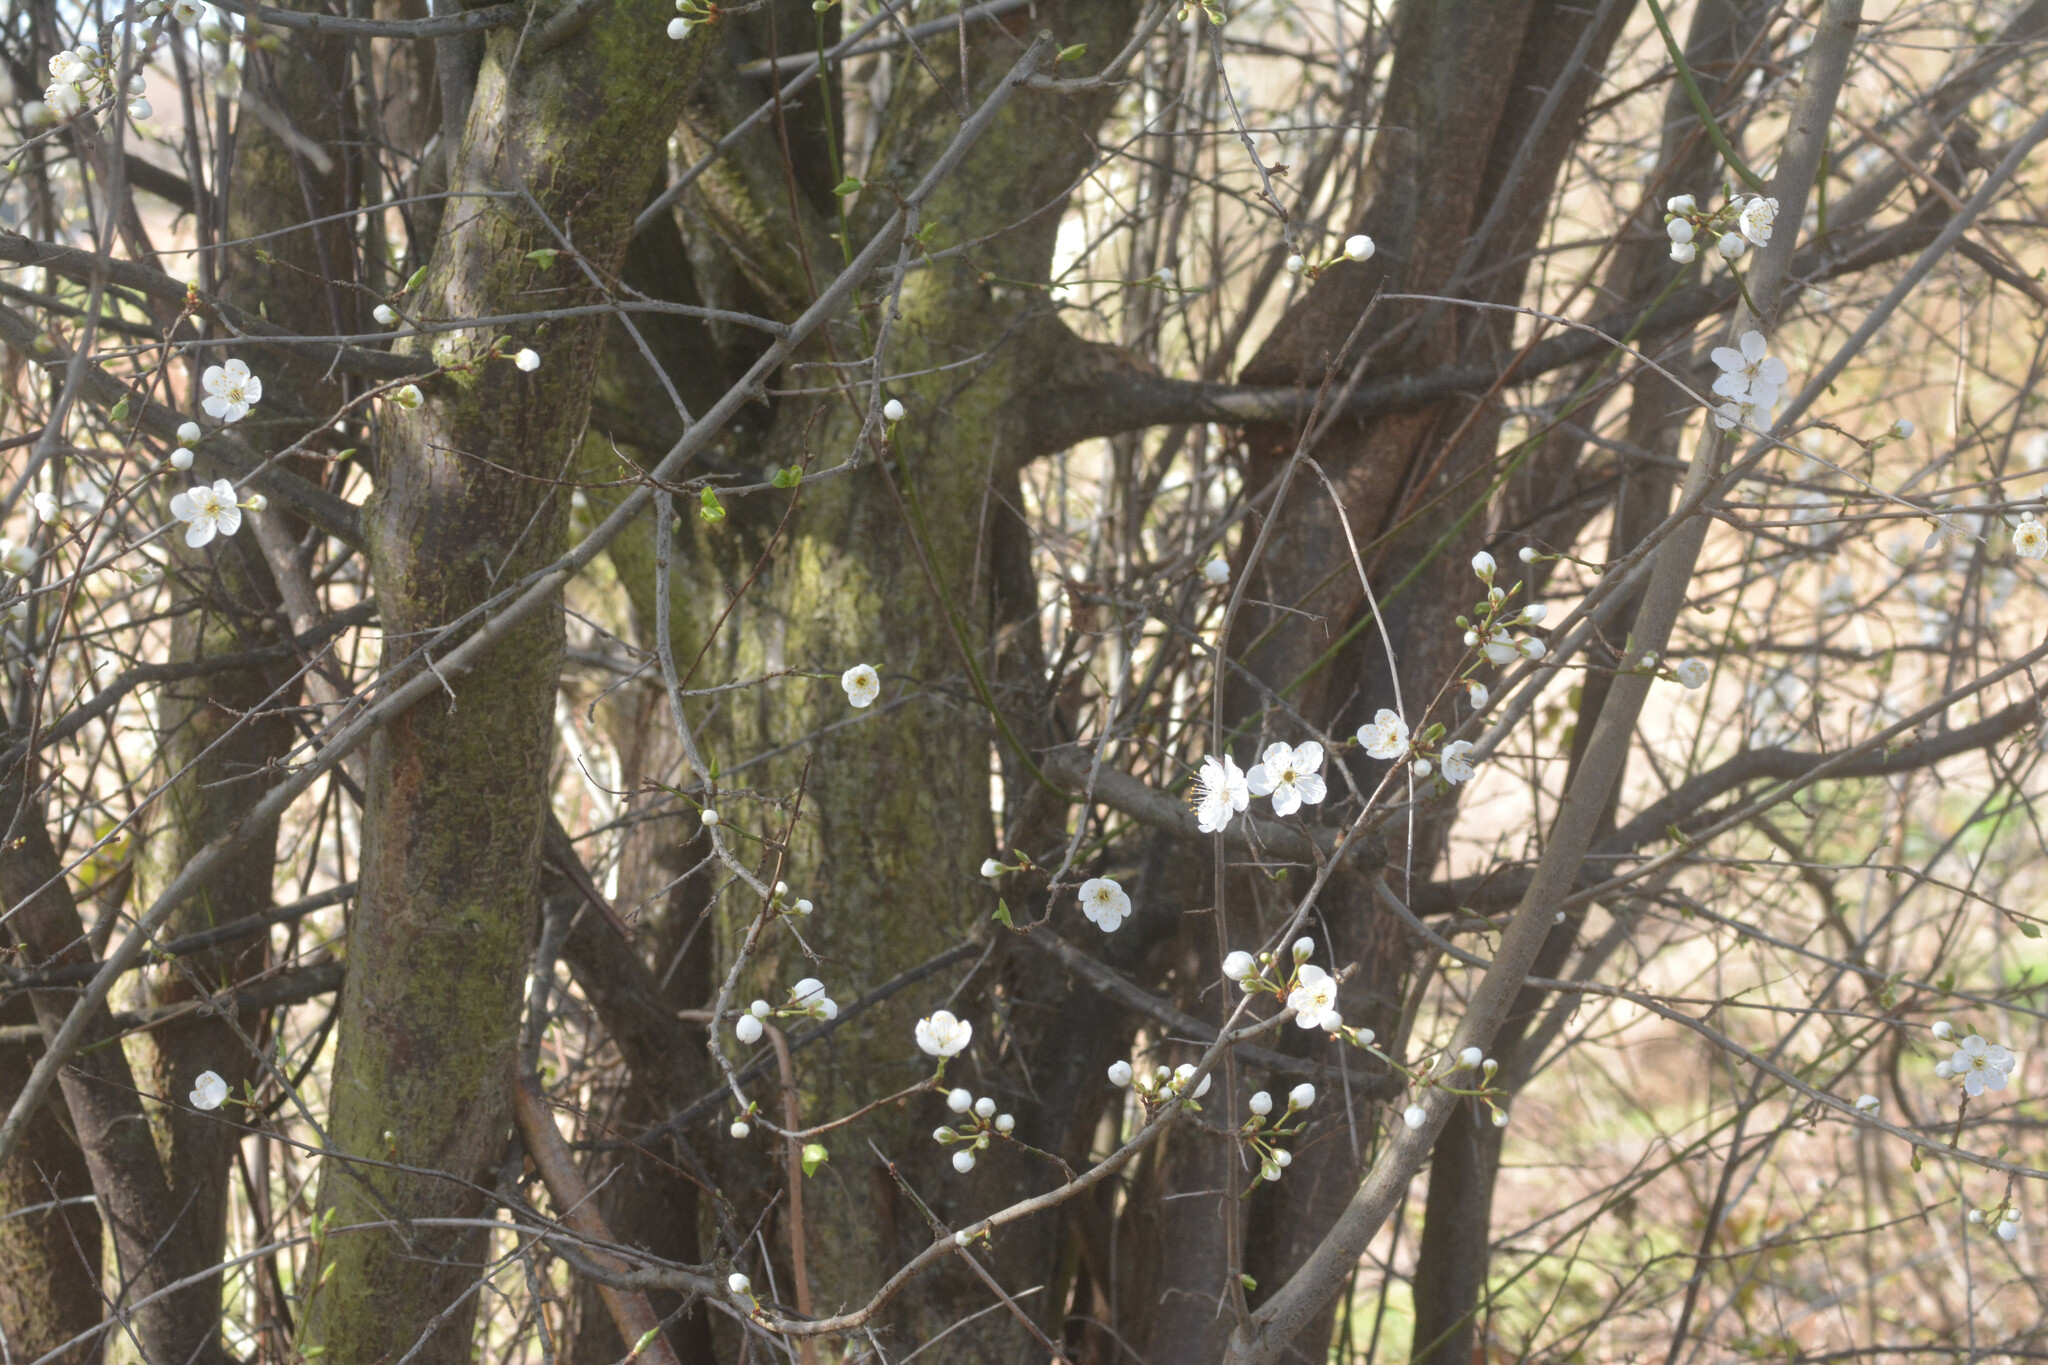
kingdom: Plantae
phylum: Tracheophyta
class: Magnoliopsida
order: Rosales
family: Rosaceae
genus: Prunus
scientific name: Prunus cerasifera
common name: Cherry plum
